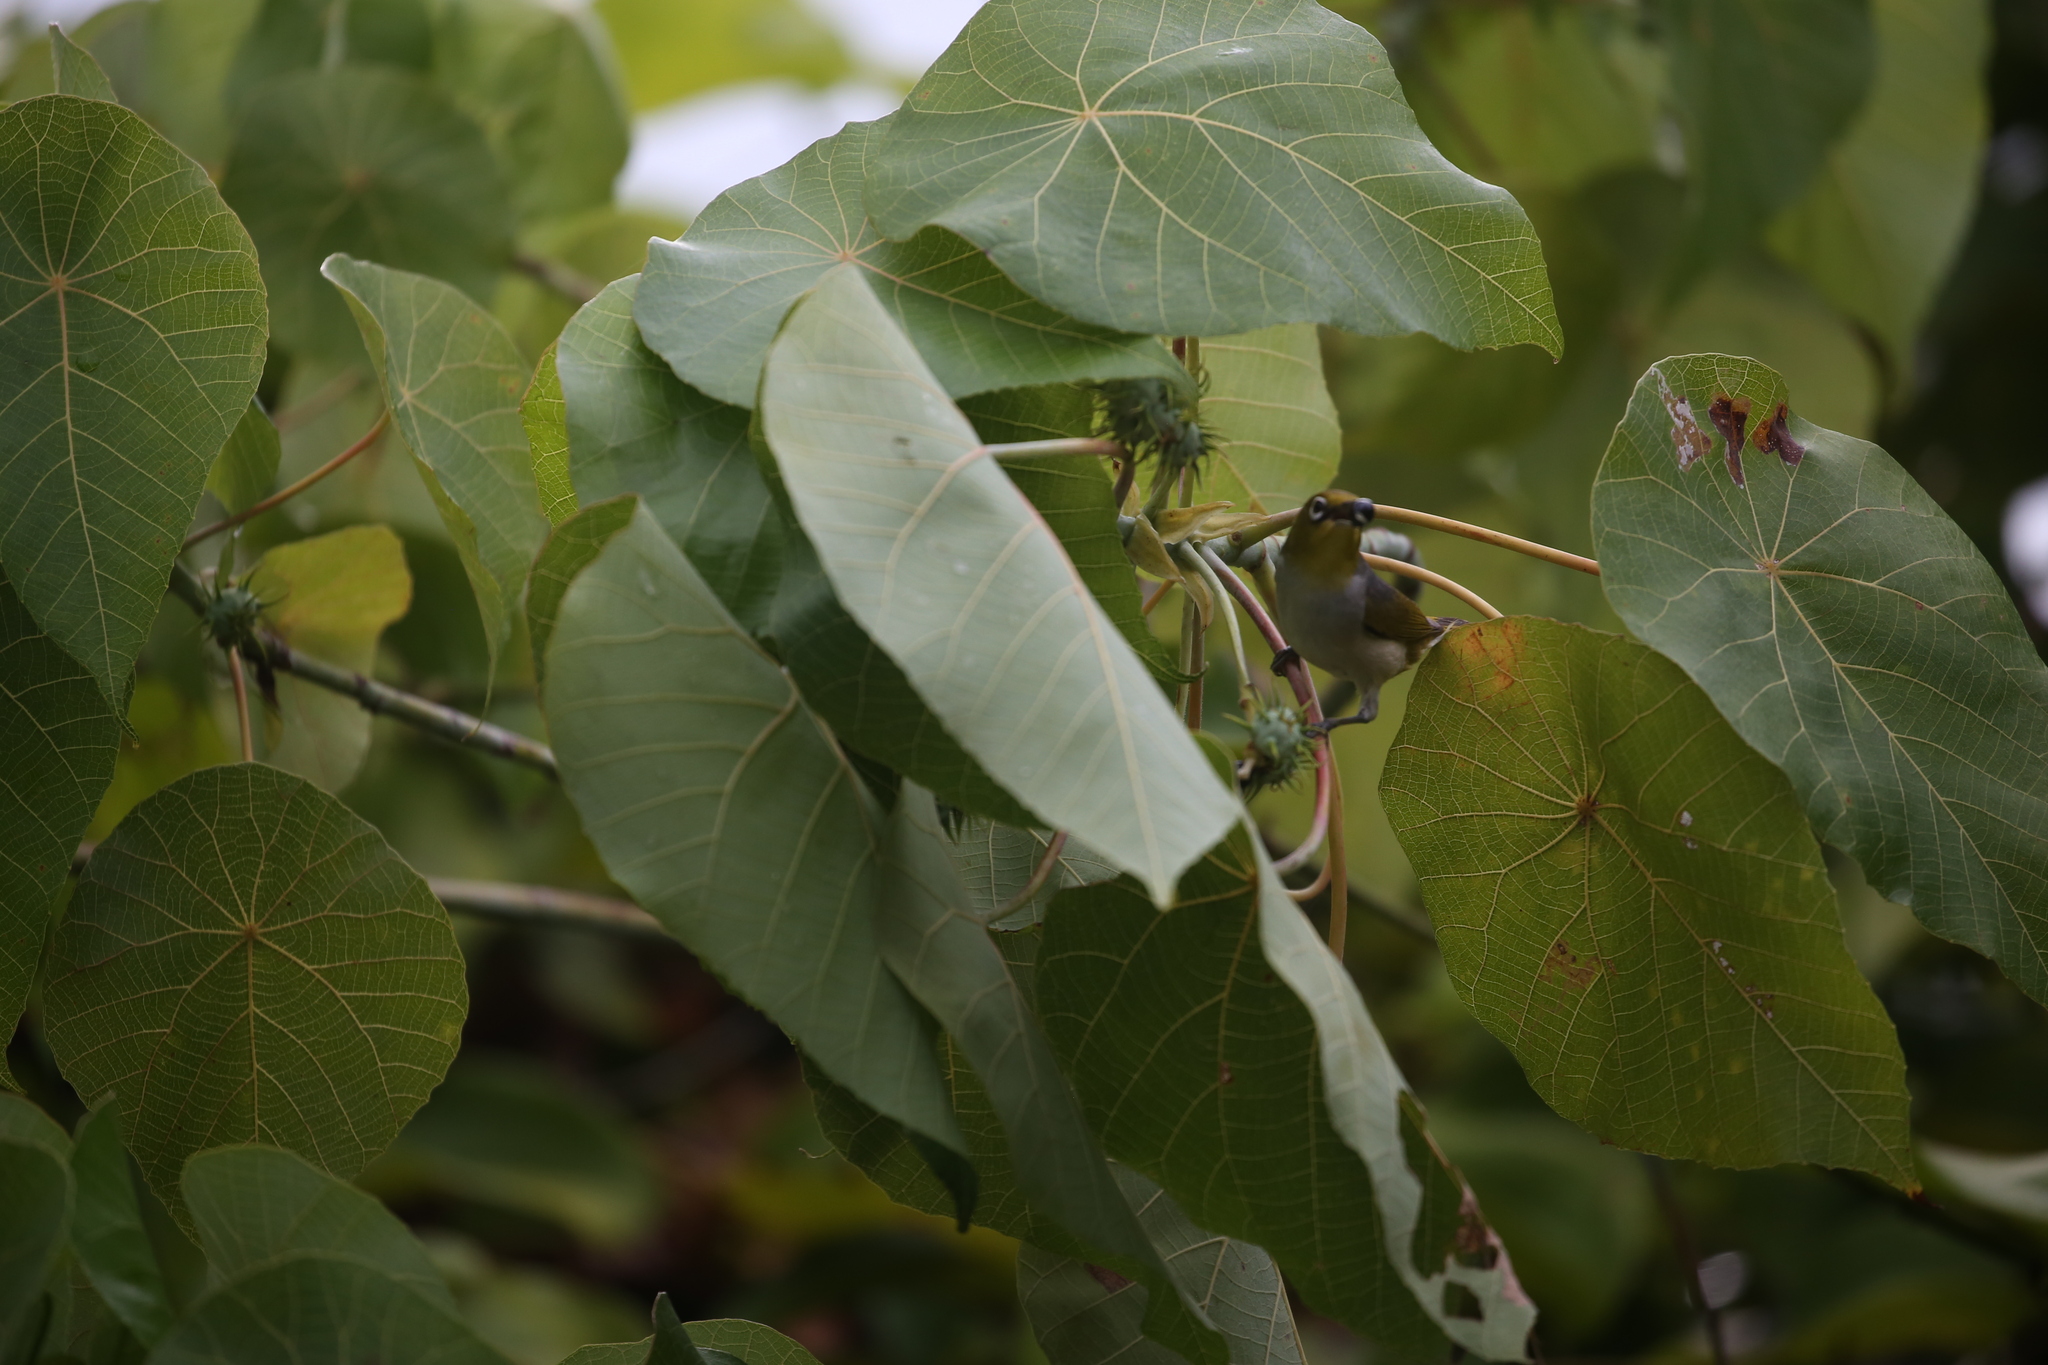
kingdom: Animalia
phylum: Chordata
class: Aves
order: Passeriformes
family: Zosteropidae
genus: Zosterops
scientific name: Zosterops lateralis
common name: Silvereye
